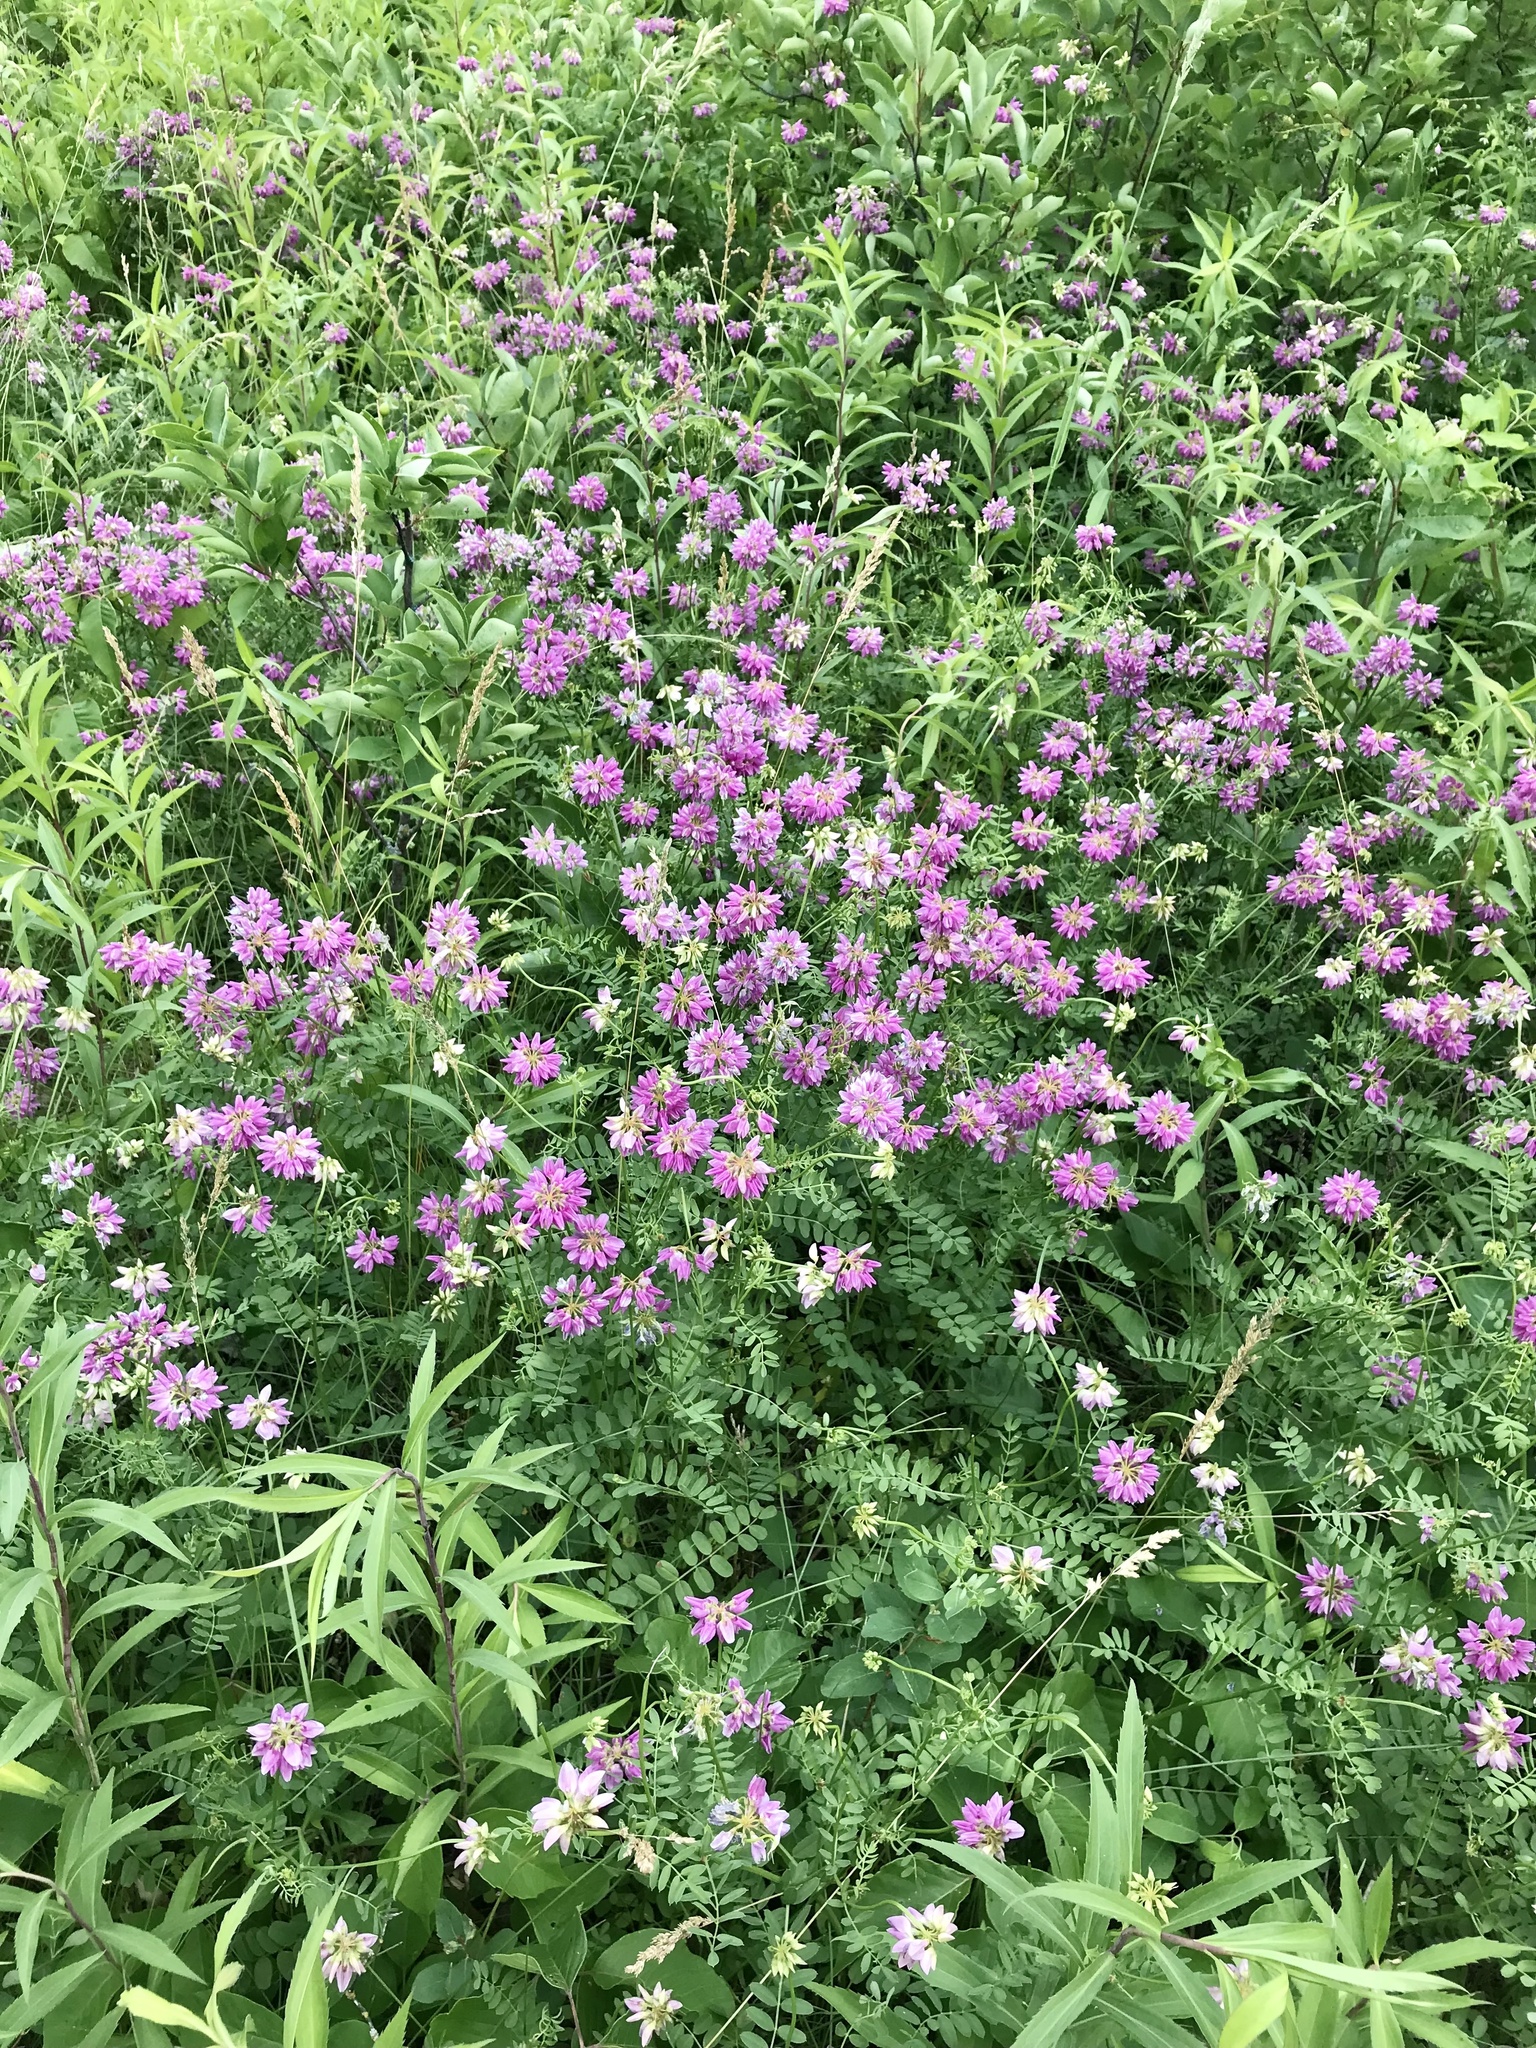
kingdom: Plantae
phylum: Tracheophyta
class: Magnoliopsida
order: Fabales
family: Fabaceae
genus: Coronilla
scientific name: Coronilla varia
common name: Crownvetch
